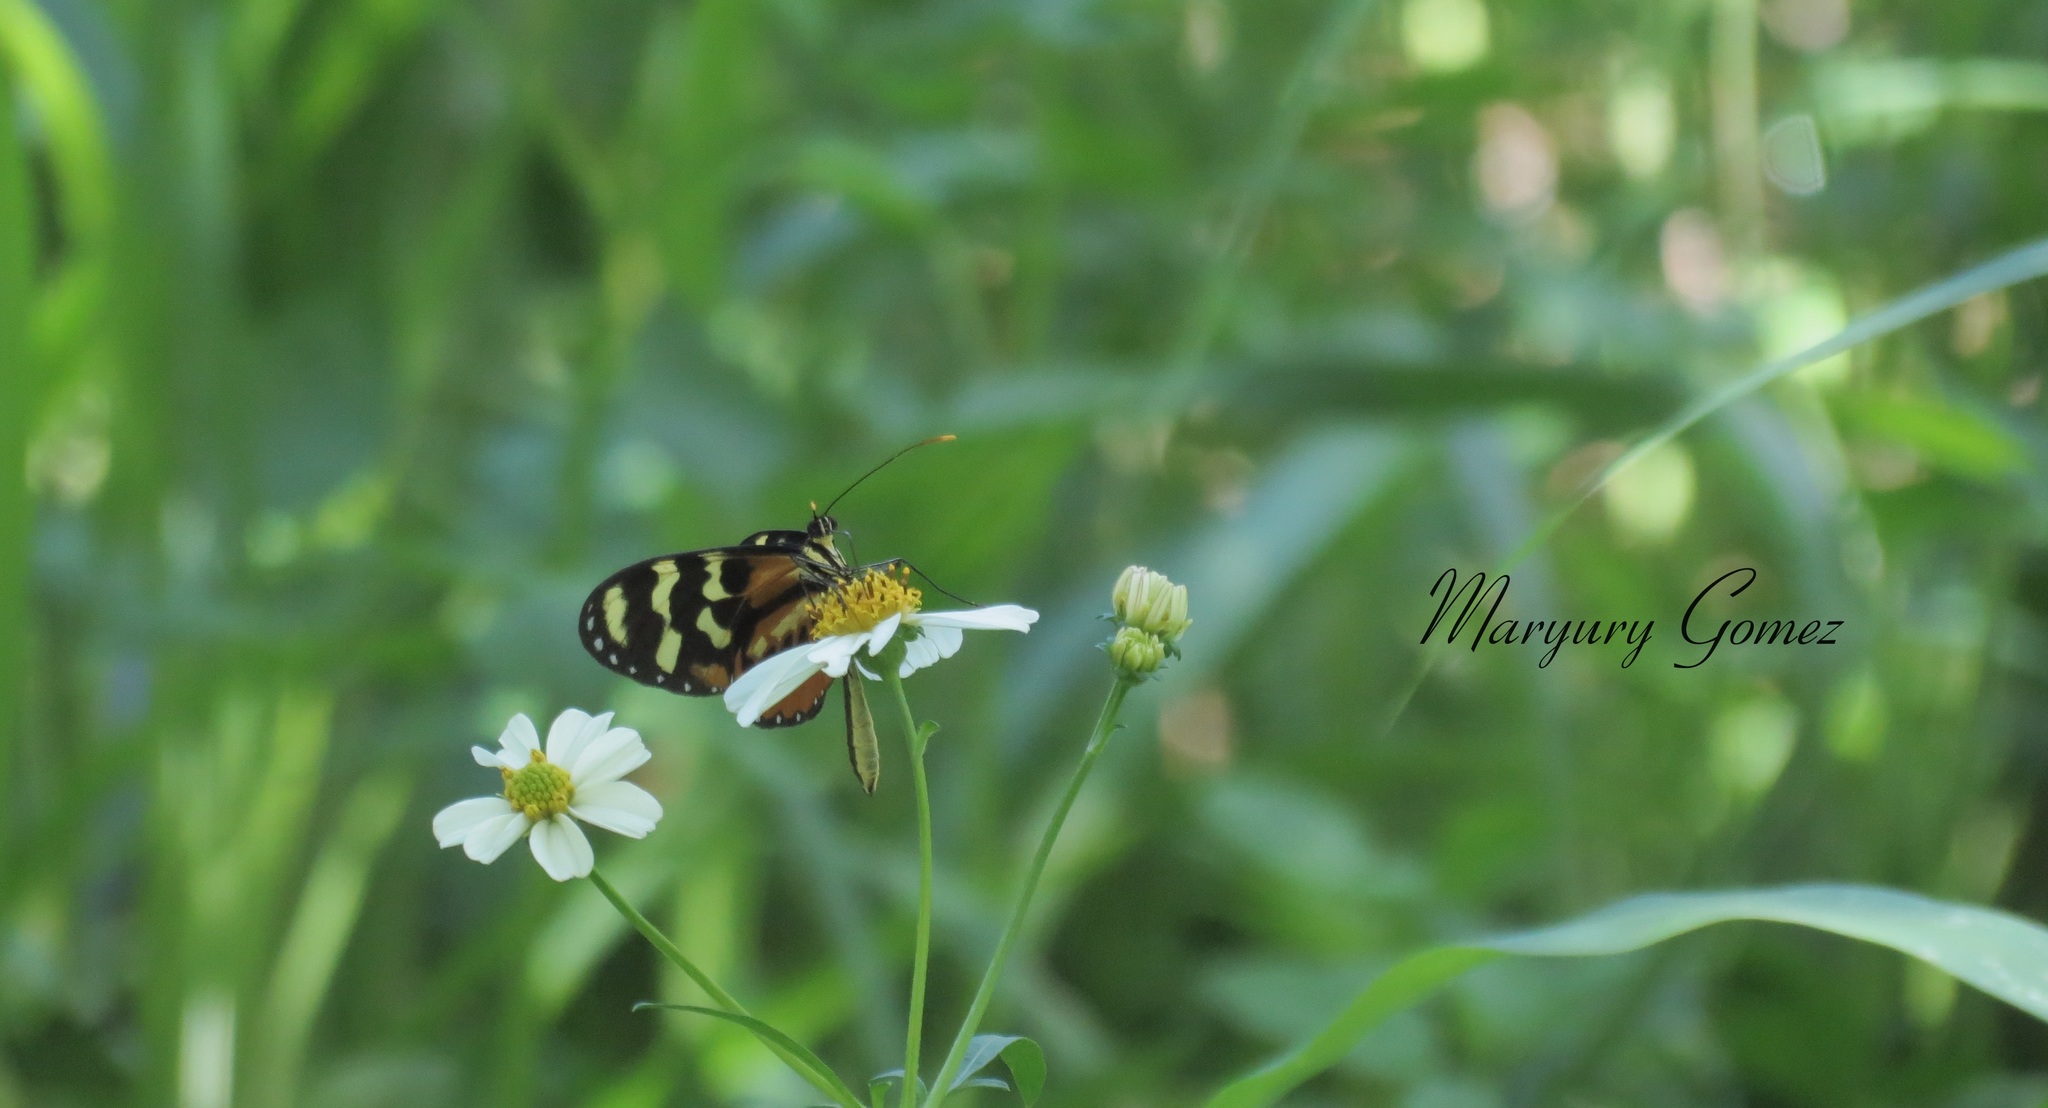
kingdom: Animalia
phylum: Arthropoda
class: Insecta
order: Lepidoptera
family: Nymphalidae
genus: Mechanitis
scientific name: Mechanitis polymnia
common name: Disturbed tigerwing
